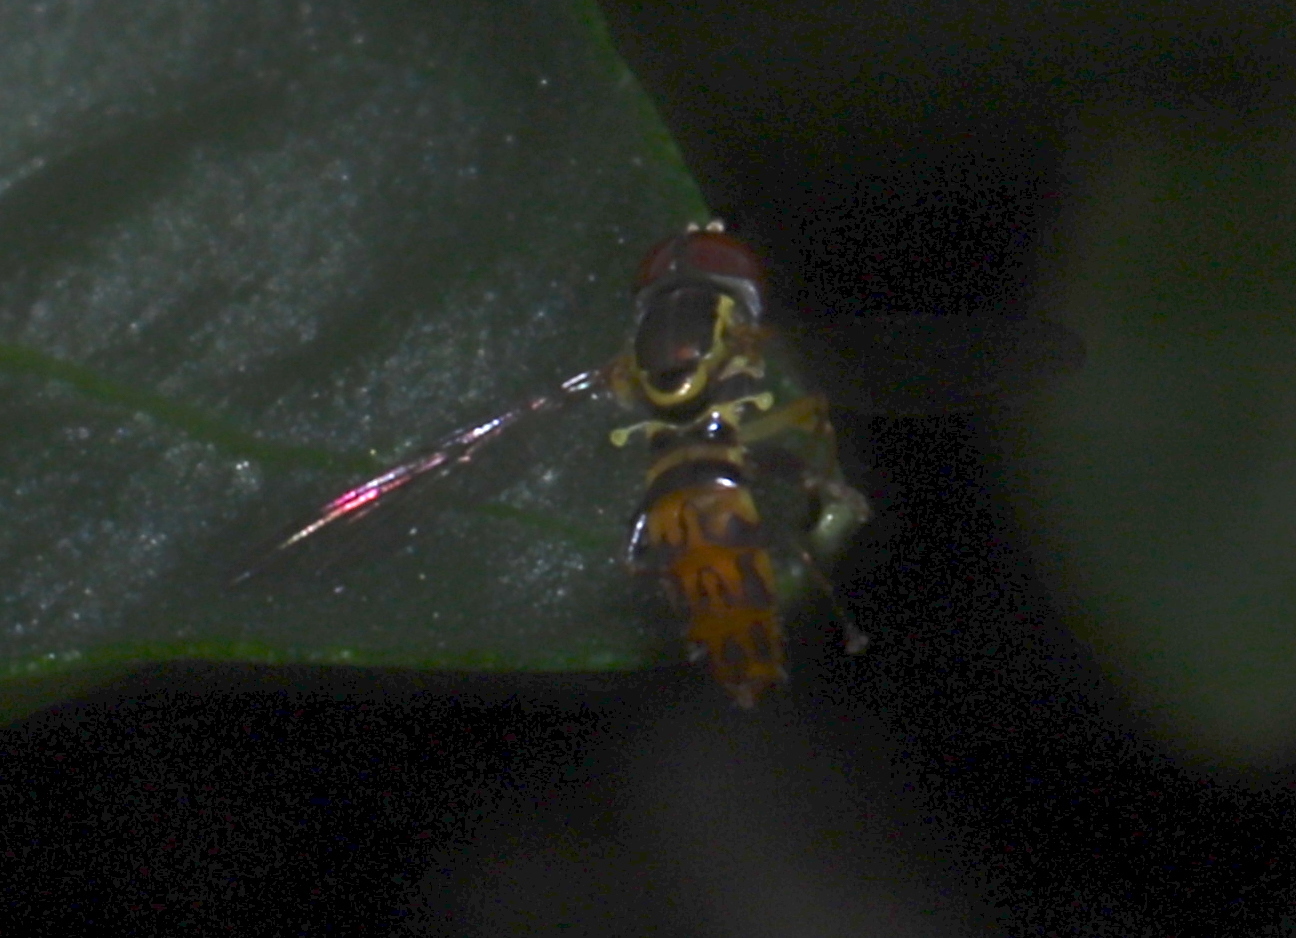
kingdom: Animalia
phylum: Arthropoda
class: Insecta
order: Diptera
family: Syrphidae
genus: Toxomerus
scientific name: Toxomerus geminatus
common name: Eastern calligrapher
